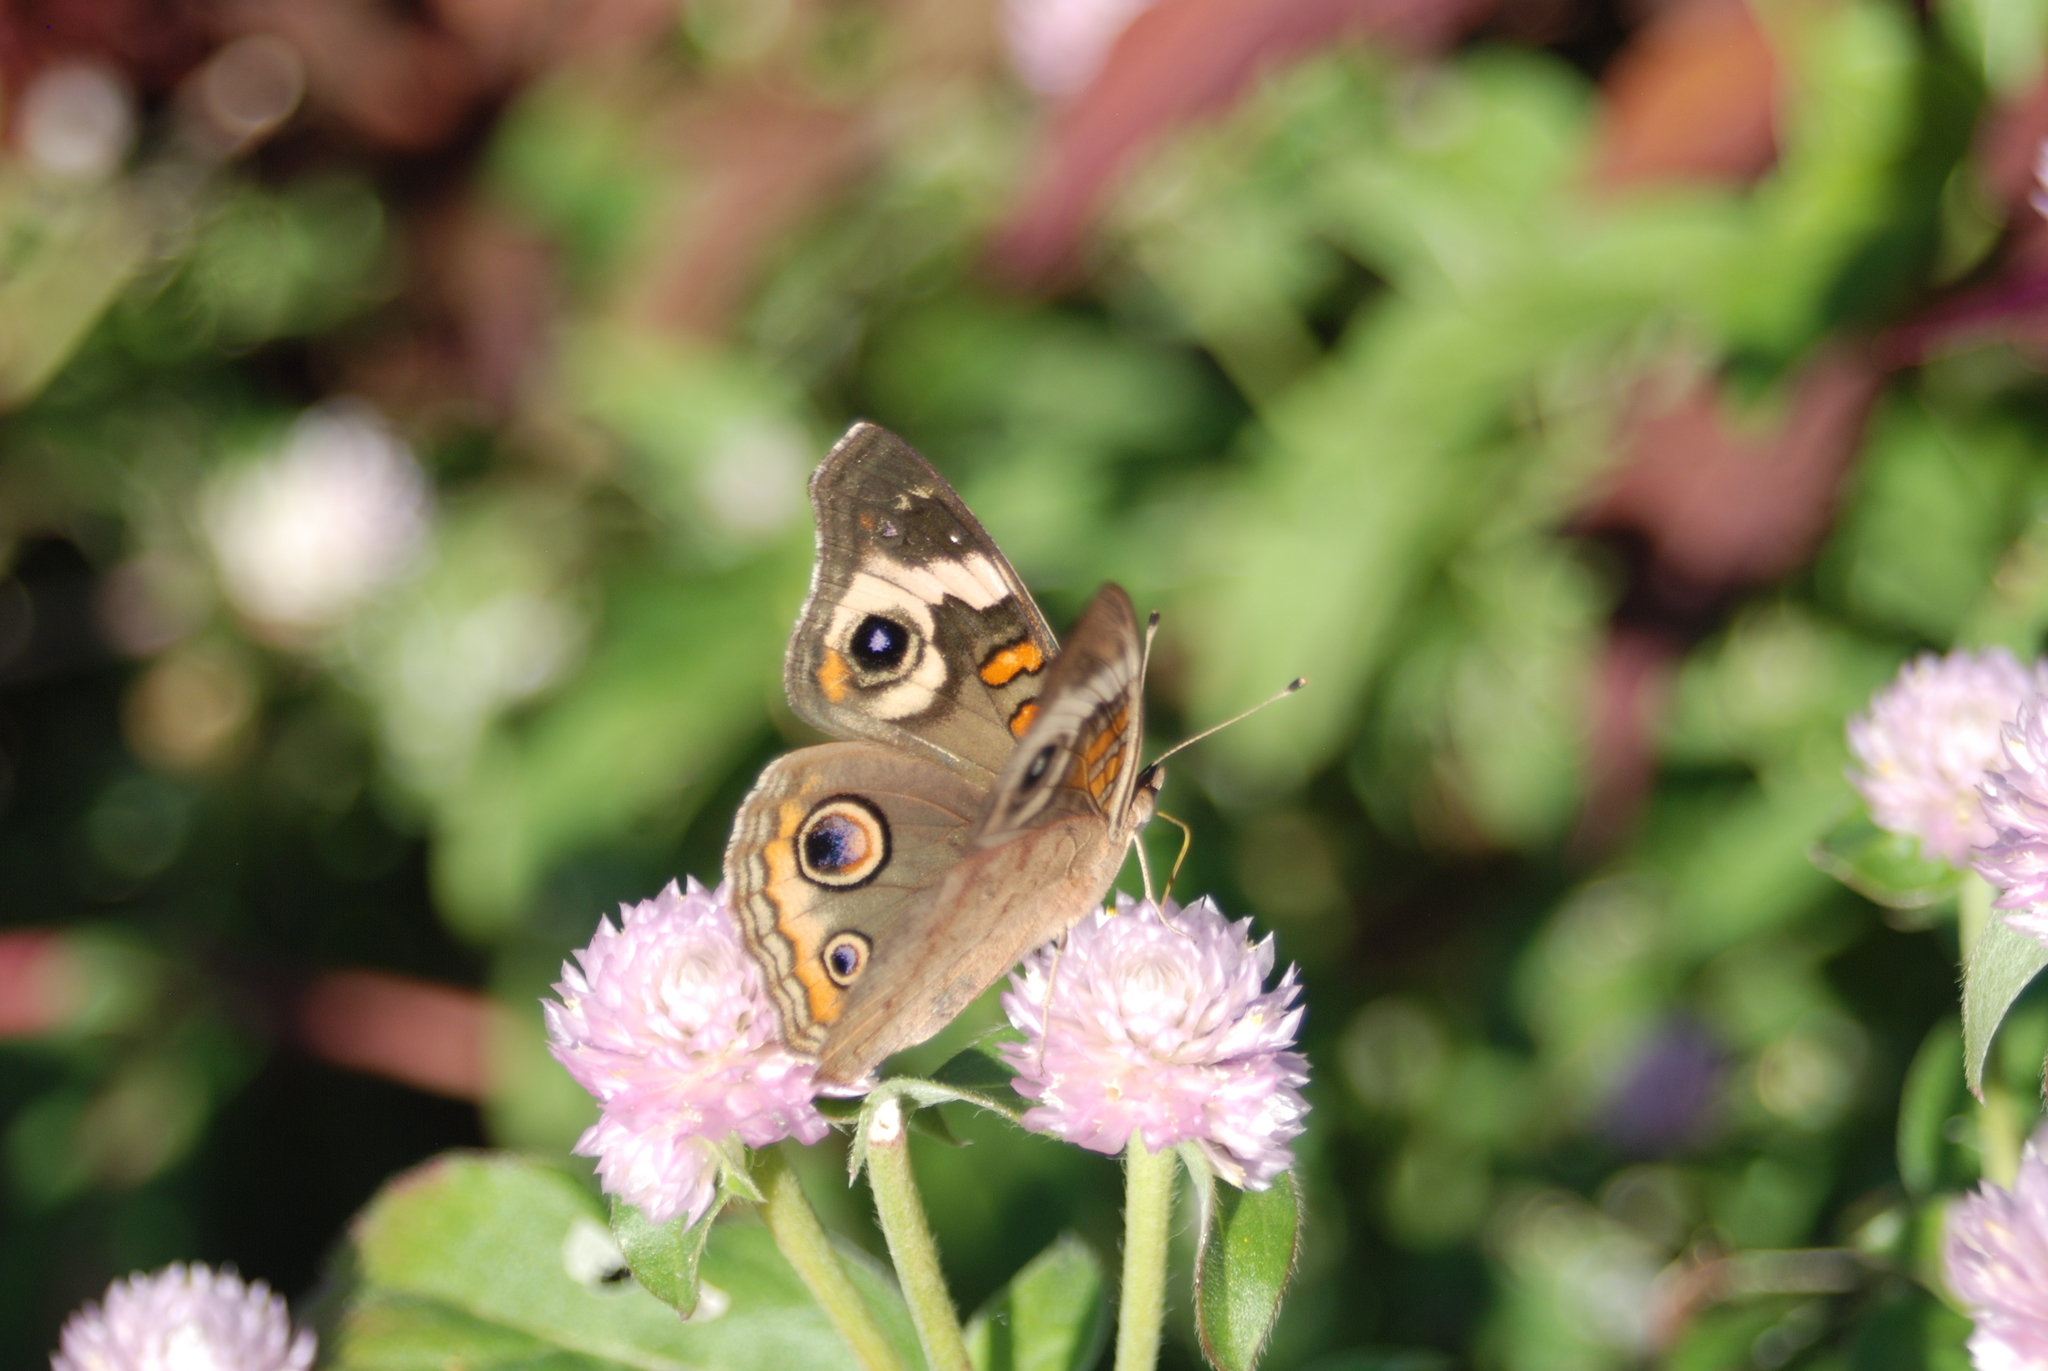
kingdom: Animalia
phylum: Arthropoda
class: Insecta
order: Lepidoptera
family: Nymphalidae
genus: Junonia
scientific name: Junonia coenia
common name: Common buckeye
